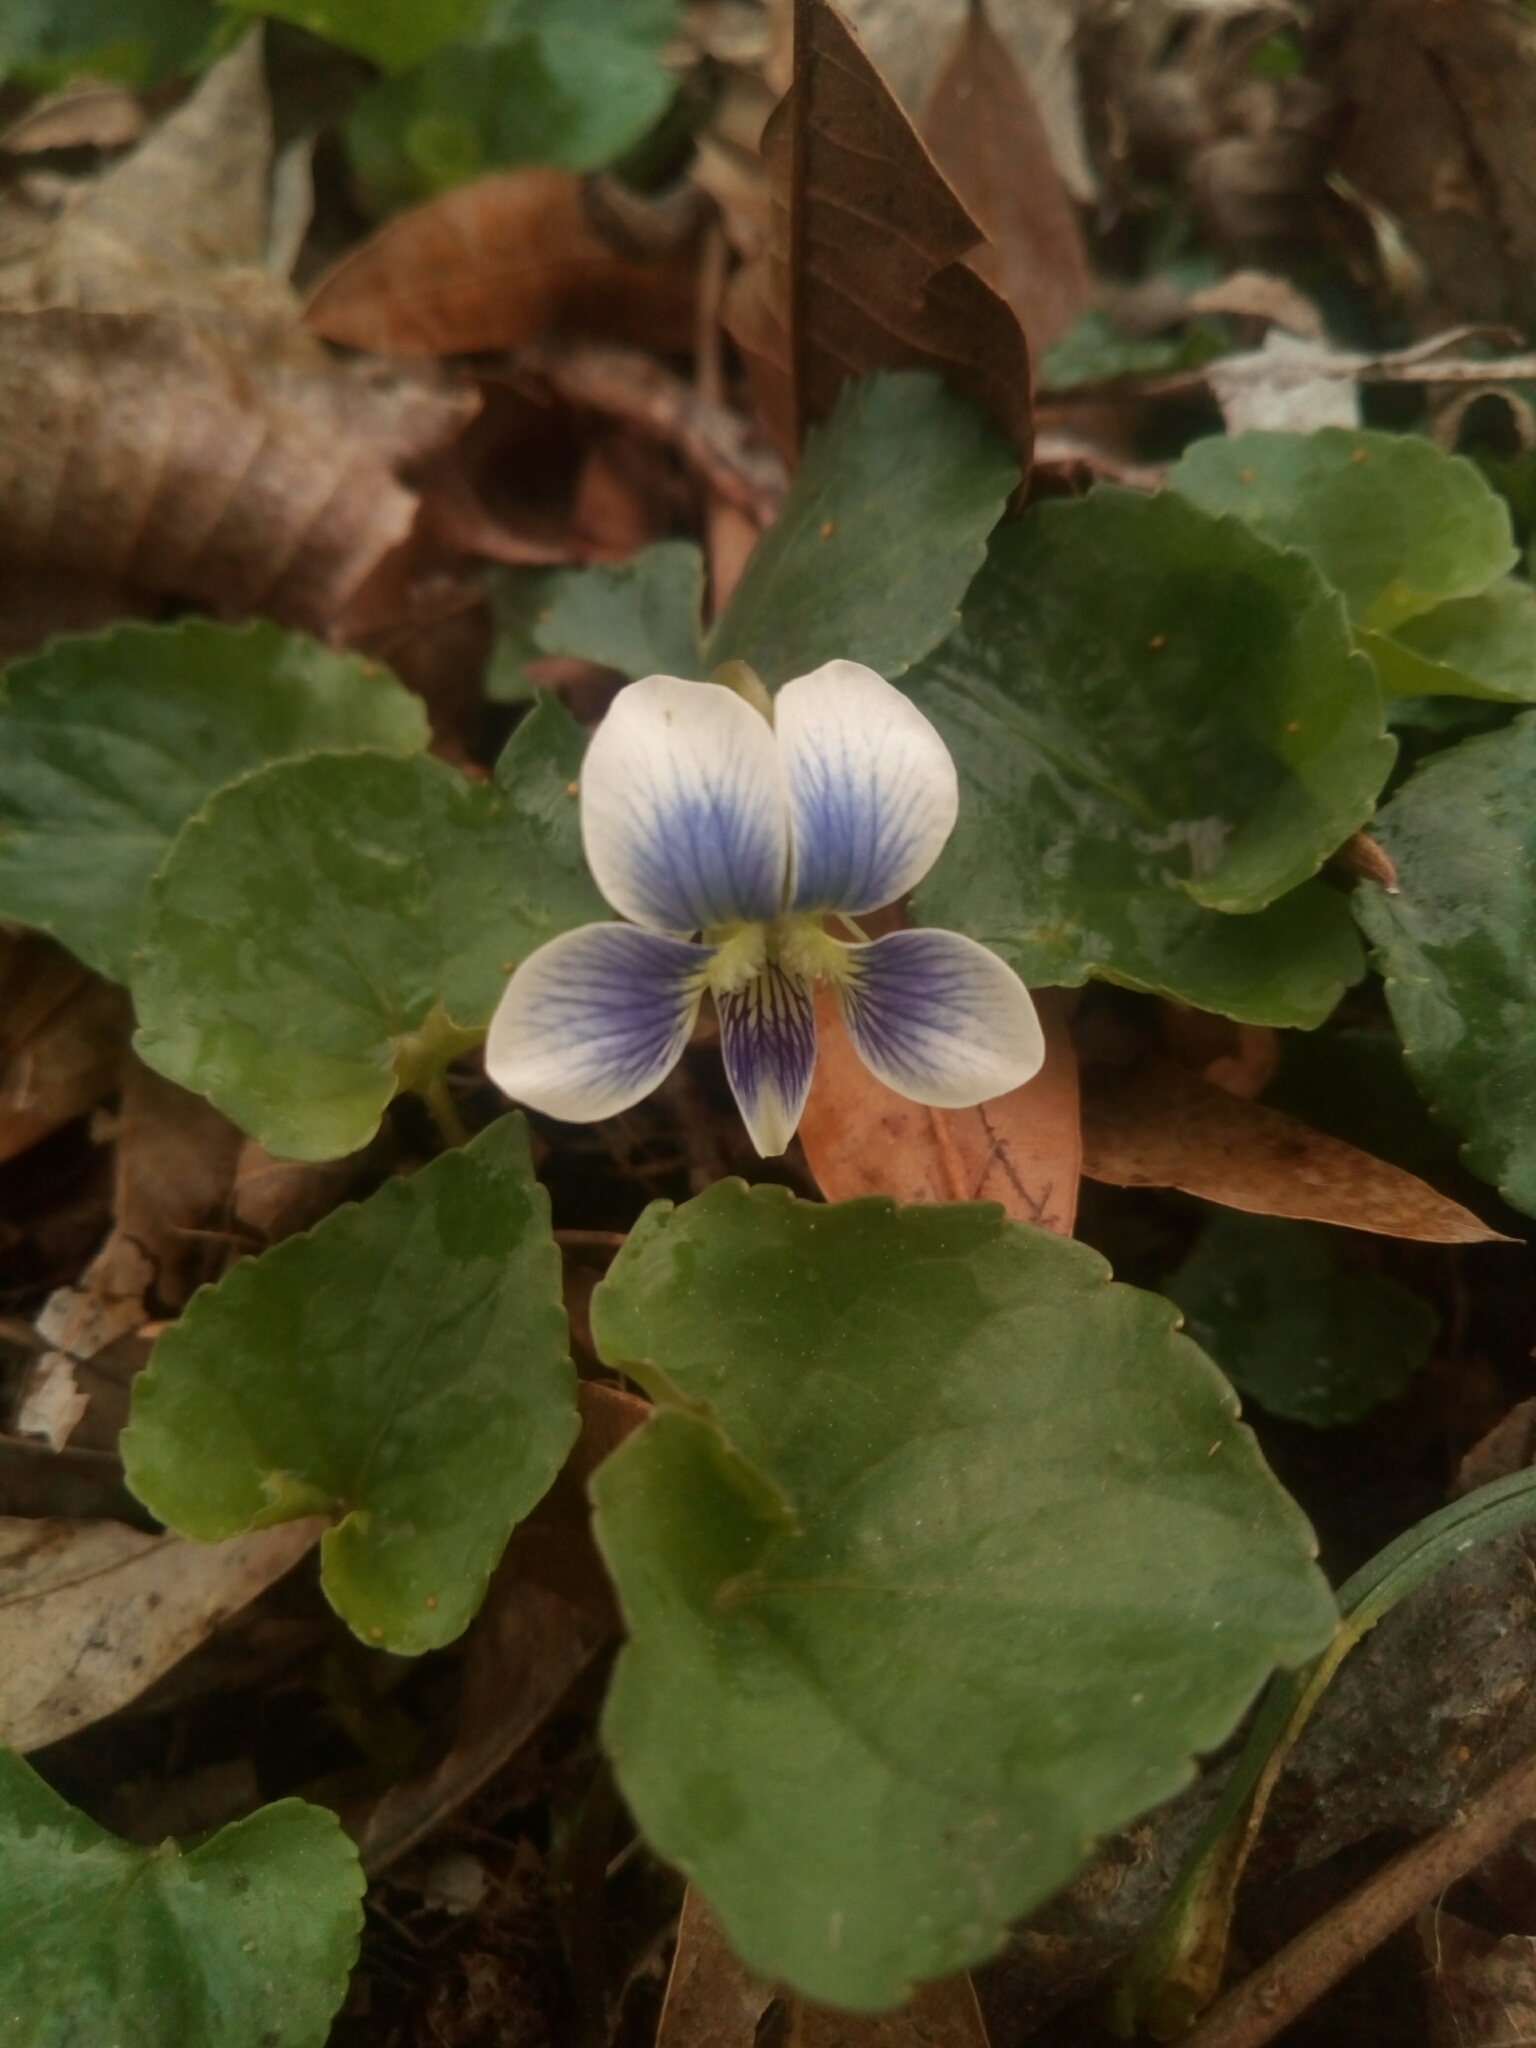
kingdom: Plantae
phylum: Tracheophyta
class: Magnoliopsida
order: Malpighiales
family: Violaceae
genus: Viola
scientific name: Viola sororia
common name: Dooryard violet
